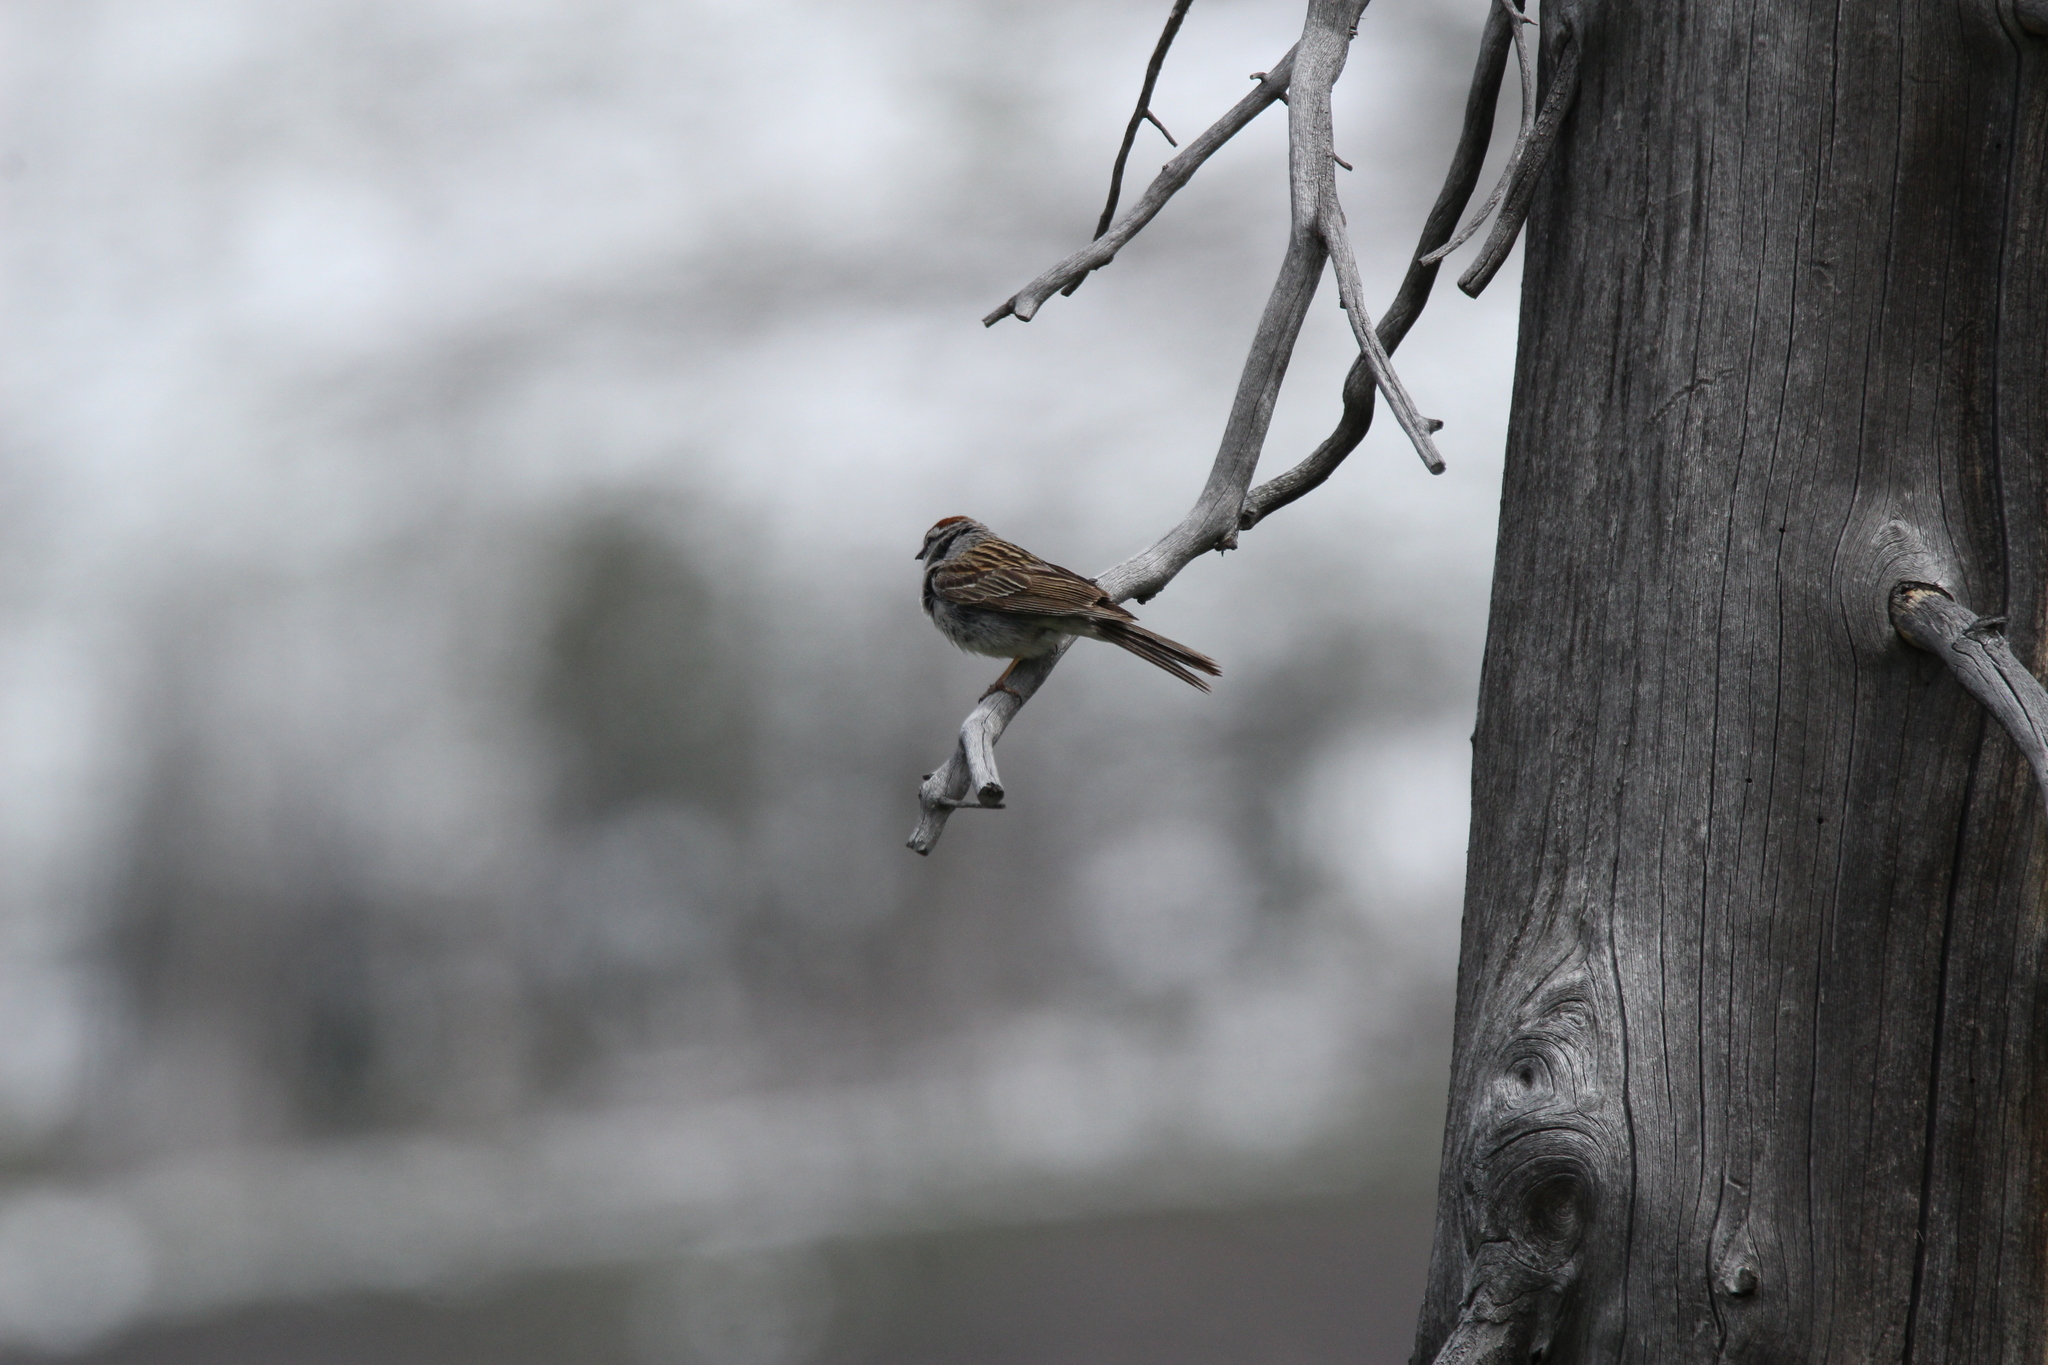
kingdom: Animalia
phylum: Chordata
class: Aves
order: Passeriformes
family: Passerellidae
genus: Spizella
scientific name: Spizella passerina
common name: Chipping sparrow
